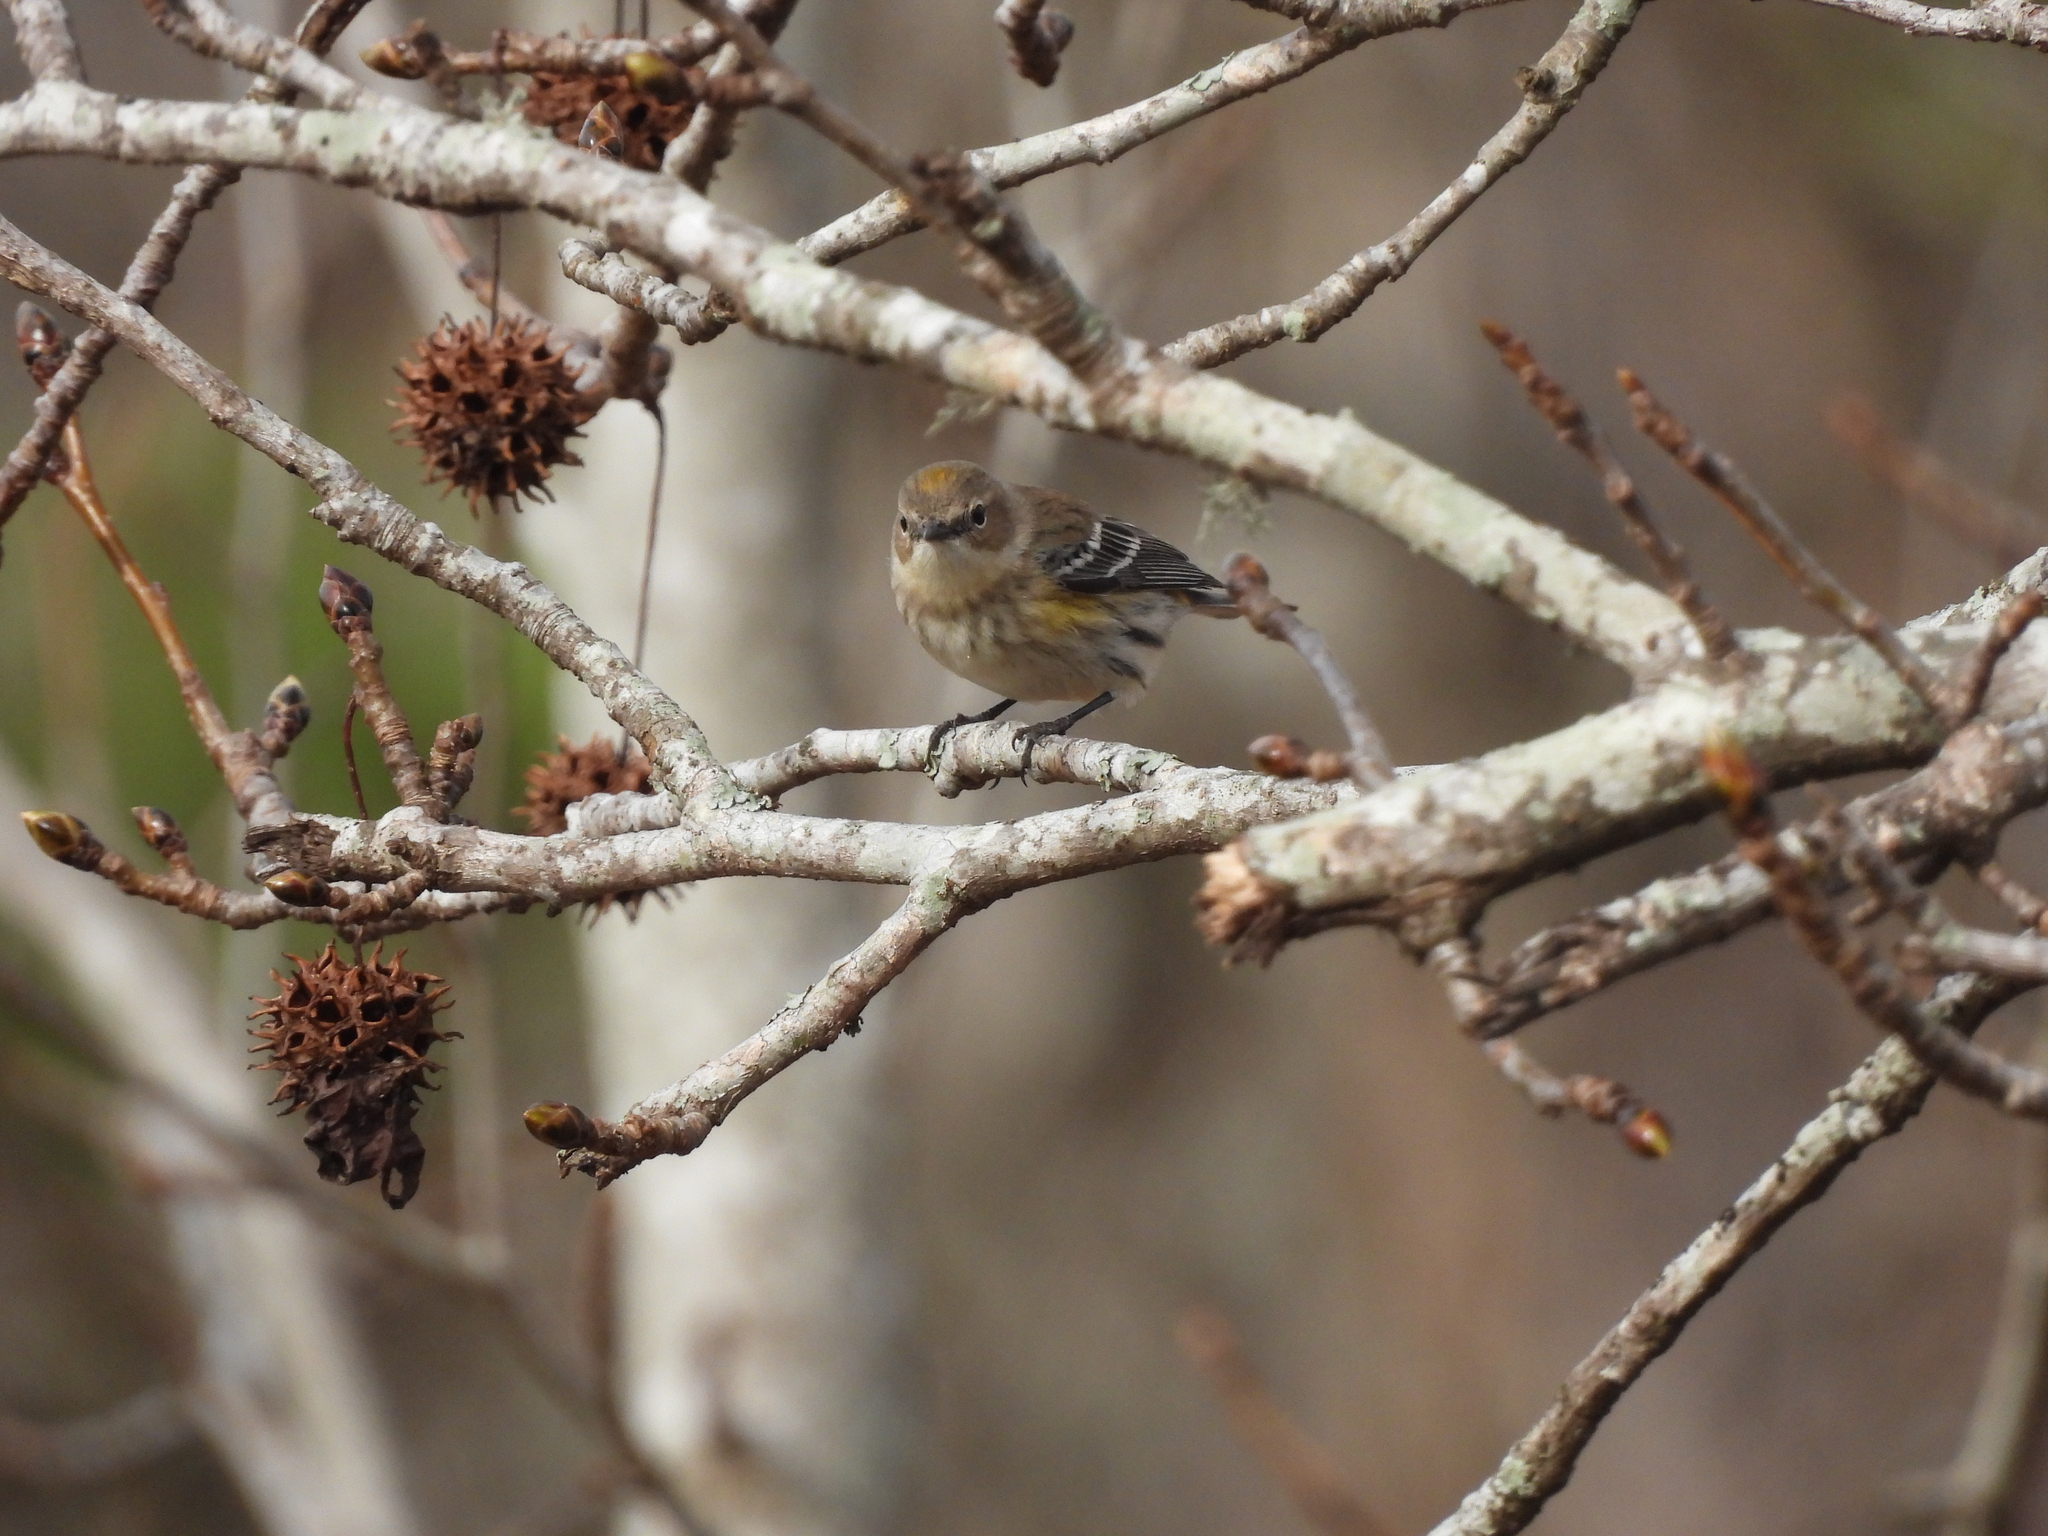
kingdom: Animalia
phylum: Chordata
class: Aves
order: Passeriformes
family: Parulidae
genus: Setophaga
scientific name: Setophaga coronata
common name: Myrtle warbler
